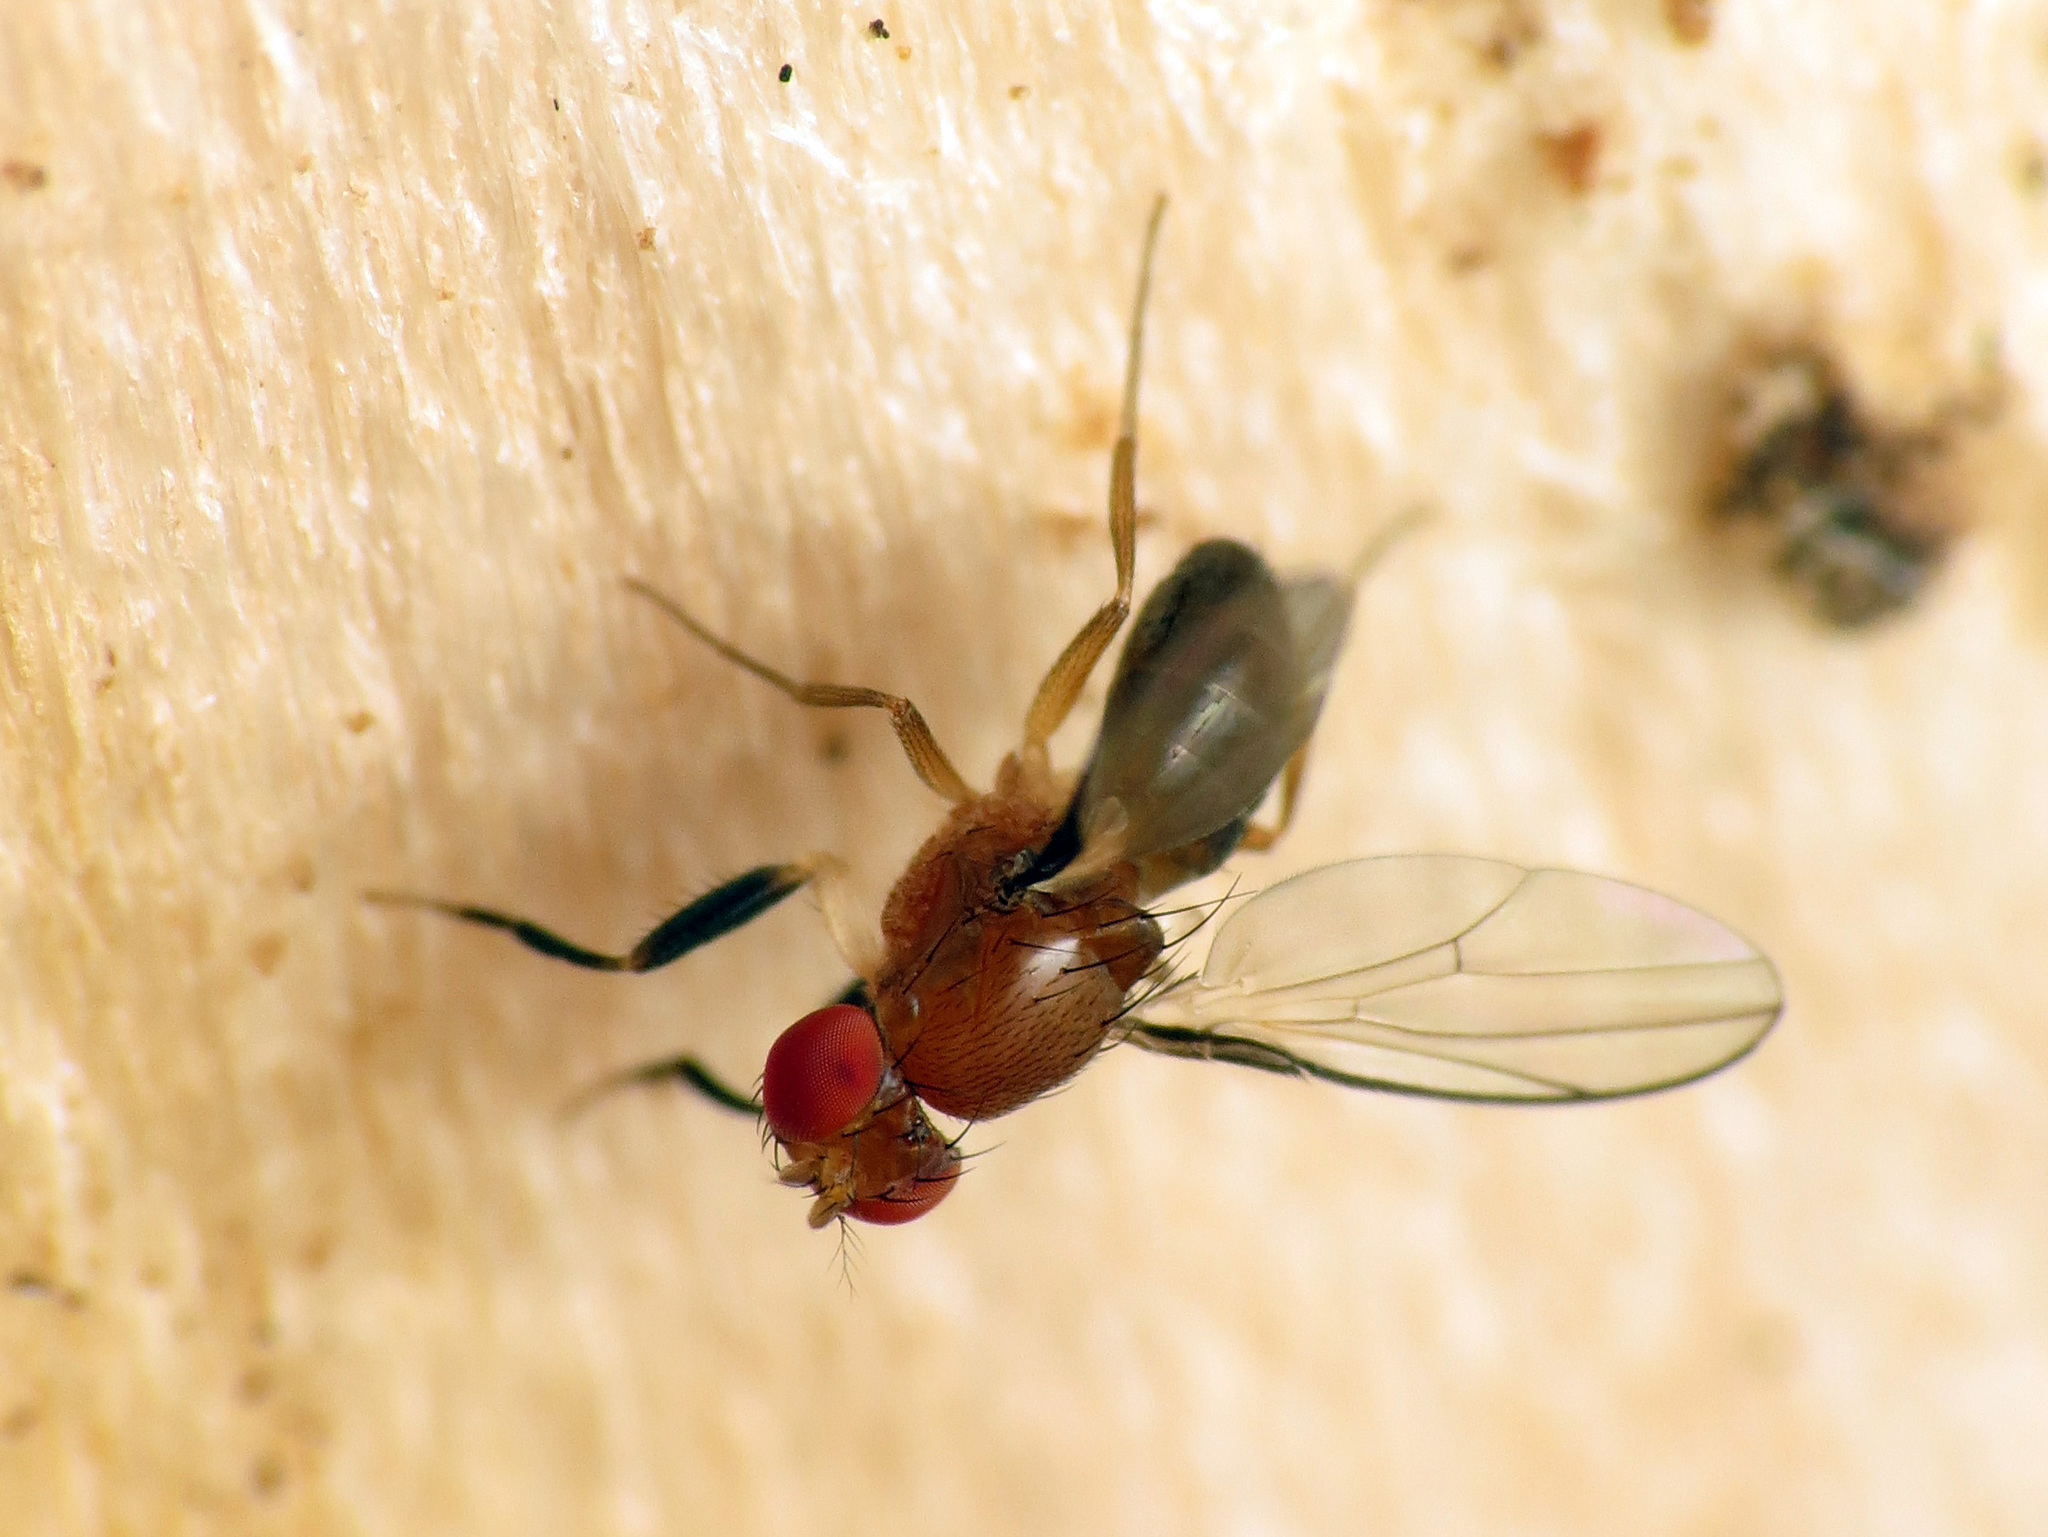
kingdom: Animalia
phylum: Arthropoda
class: Insecta
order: Diptera
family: Drosophilidae
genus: Chymomyza
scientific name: Chymomyza procnemoides
